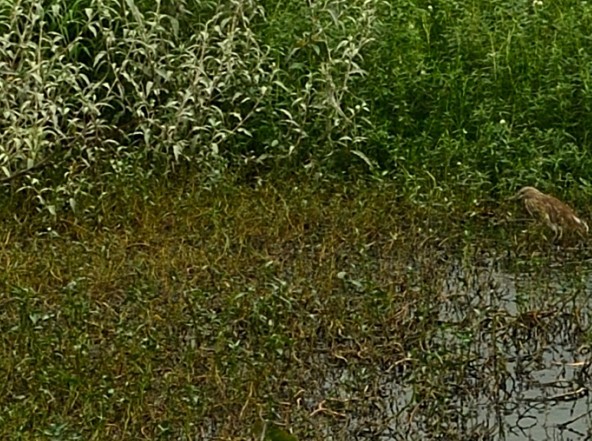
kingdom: Animalia
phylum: Chordata
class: Aves
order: Pelecaniformes
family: Ardeidae
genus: Ardeola
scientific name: Ardeola grayii
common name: Indian pond heron
